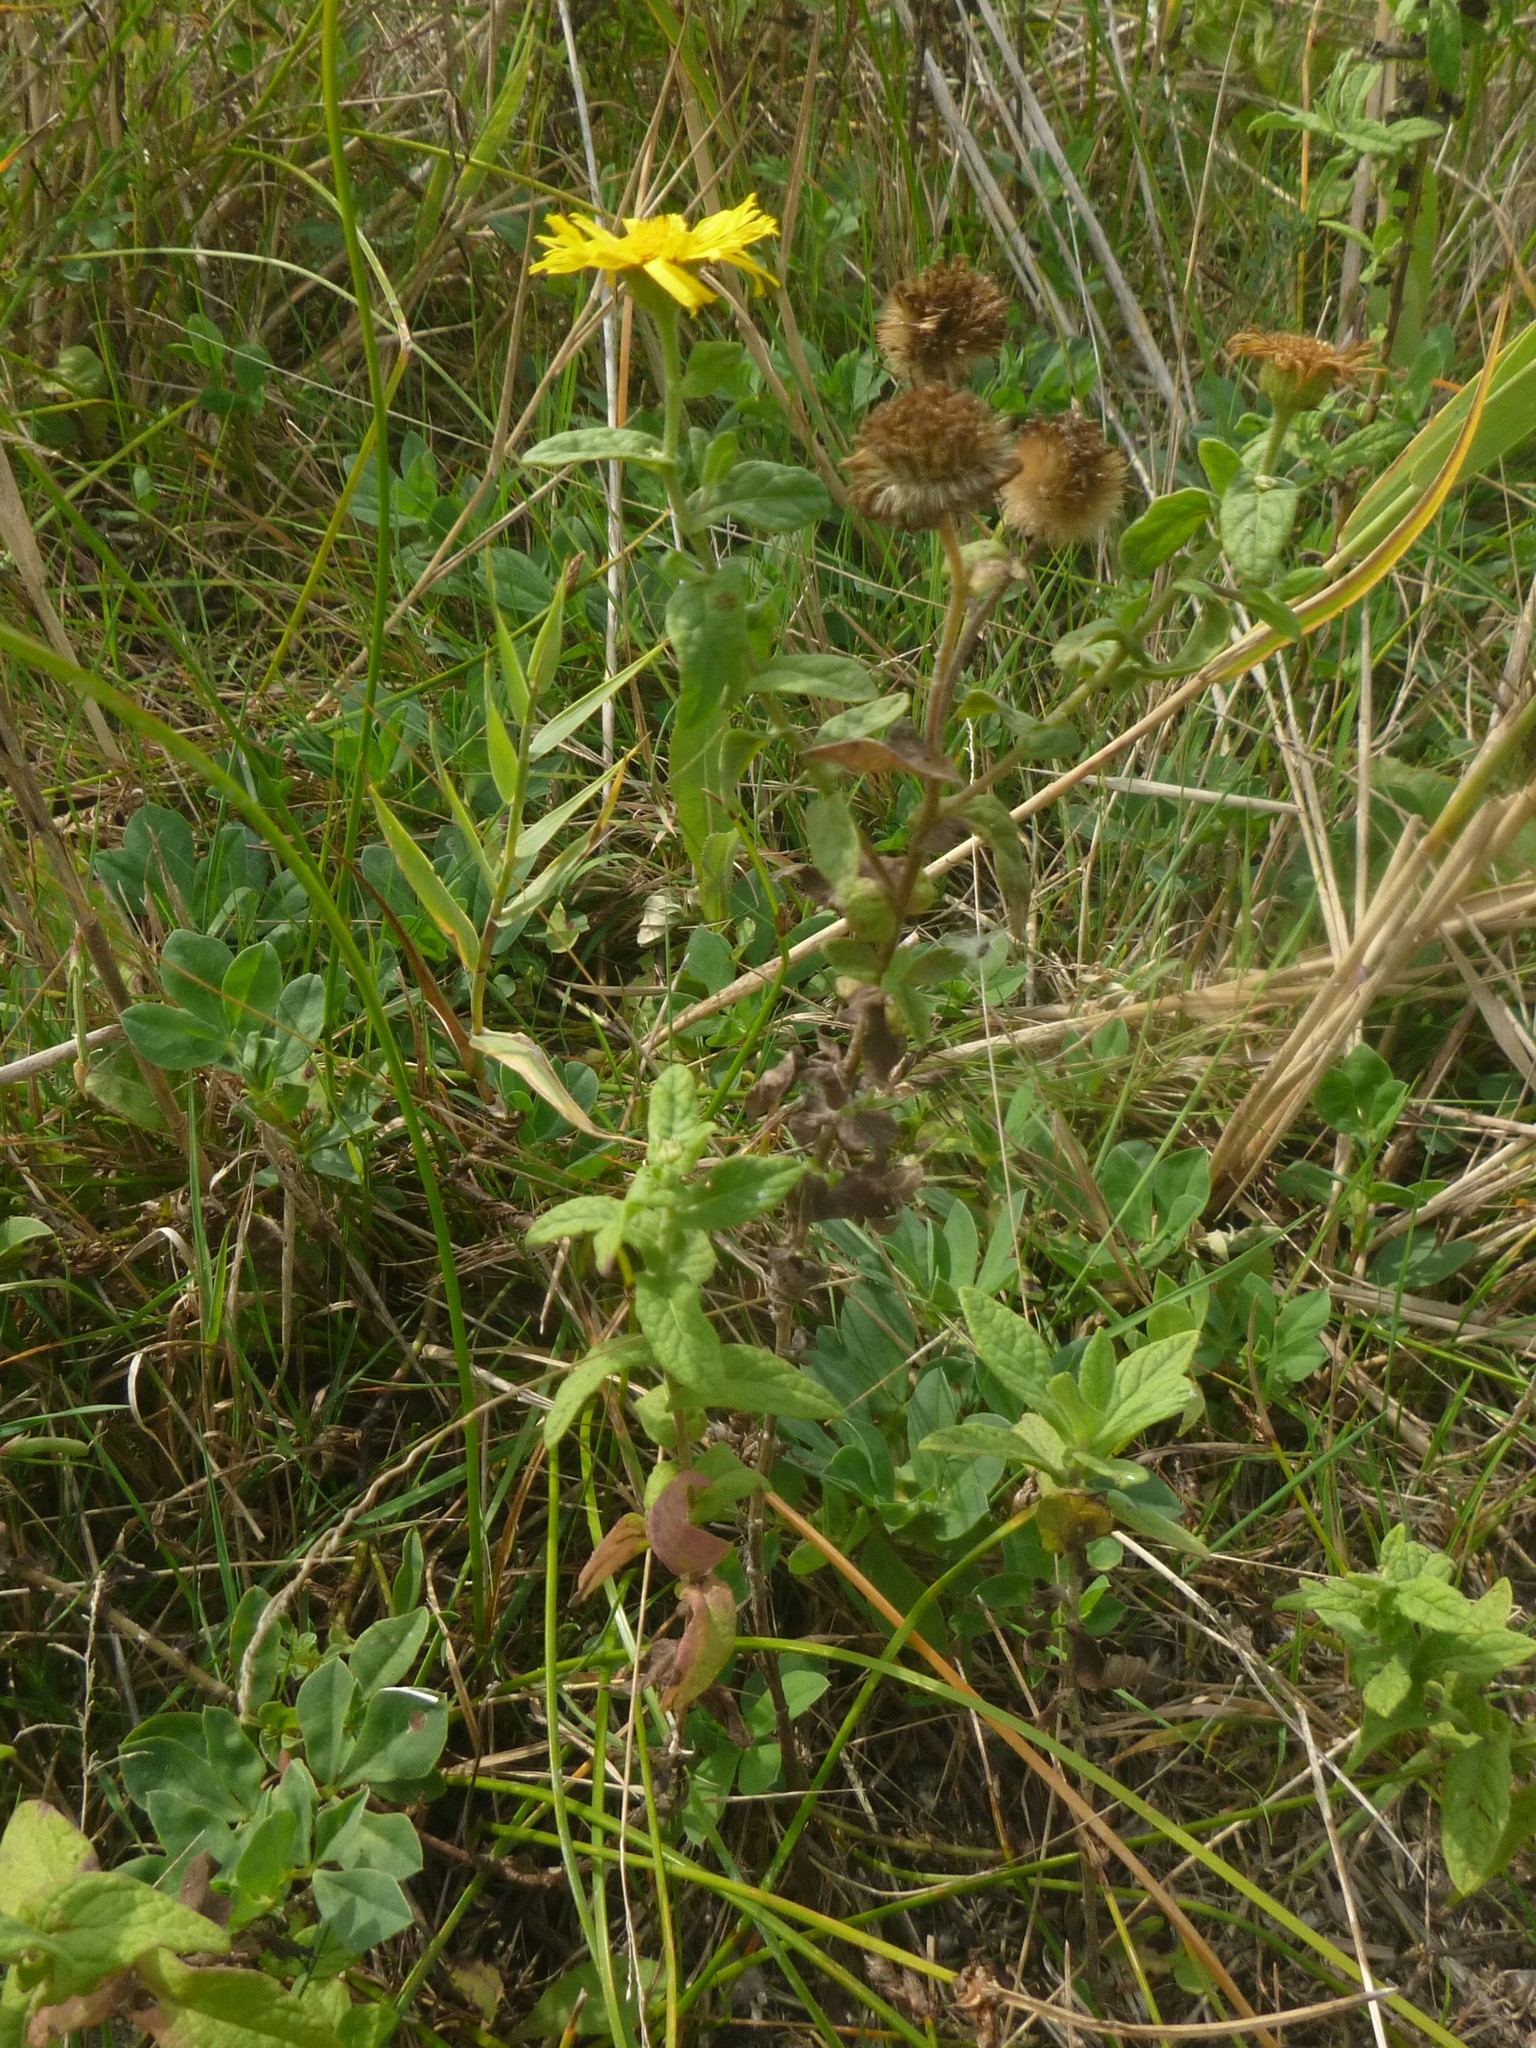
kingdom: Plantae
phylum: Tracheophyta
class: Magnoliopsida
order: Asterales
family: Asteraceae
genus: Pulicaria
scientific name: Pulicaria dysenterica
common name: Common fleabane
